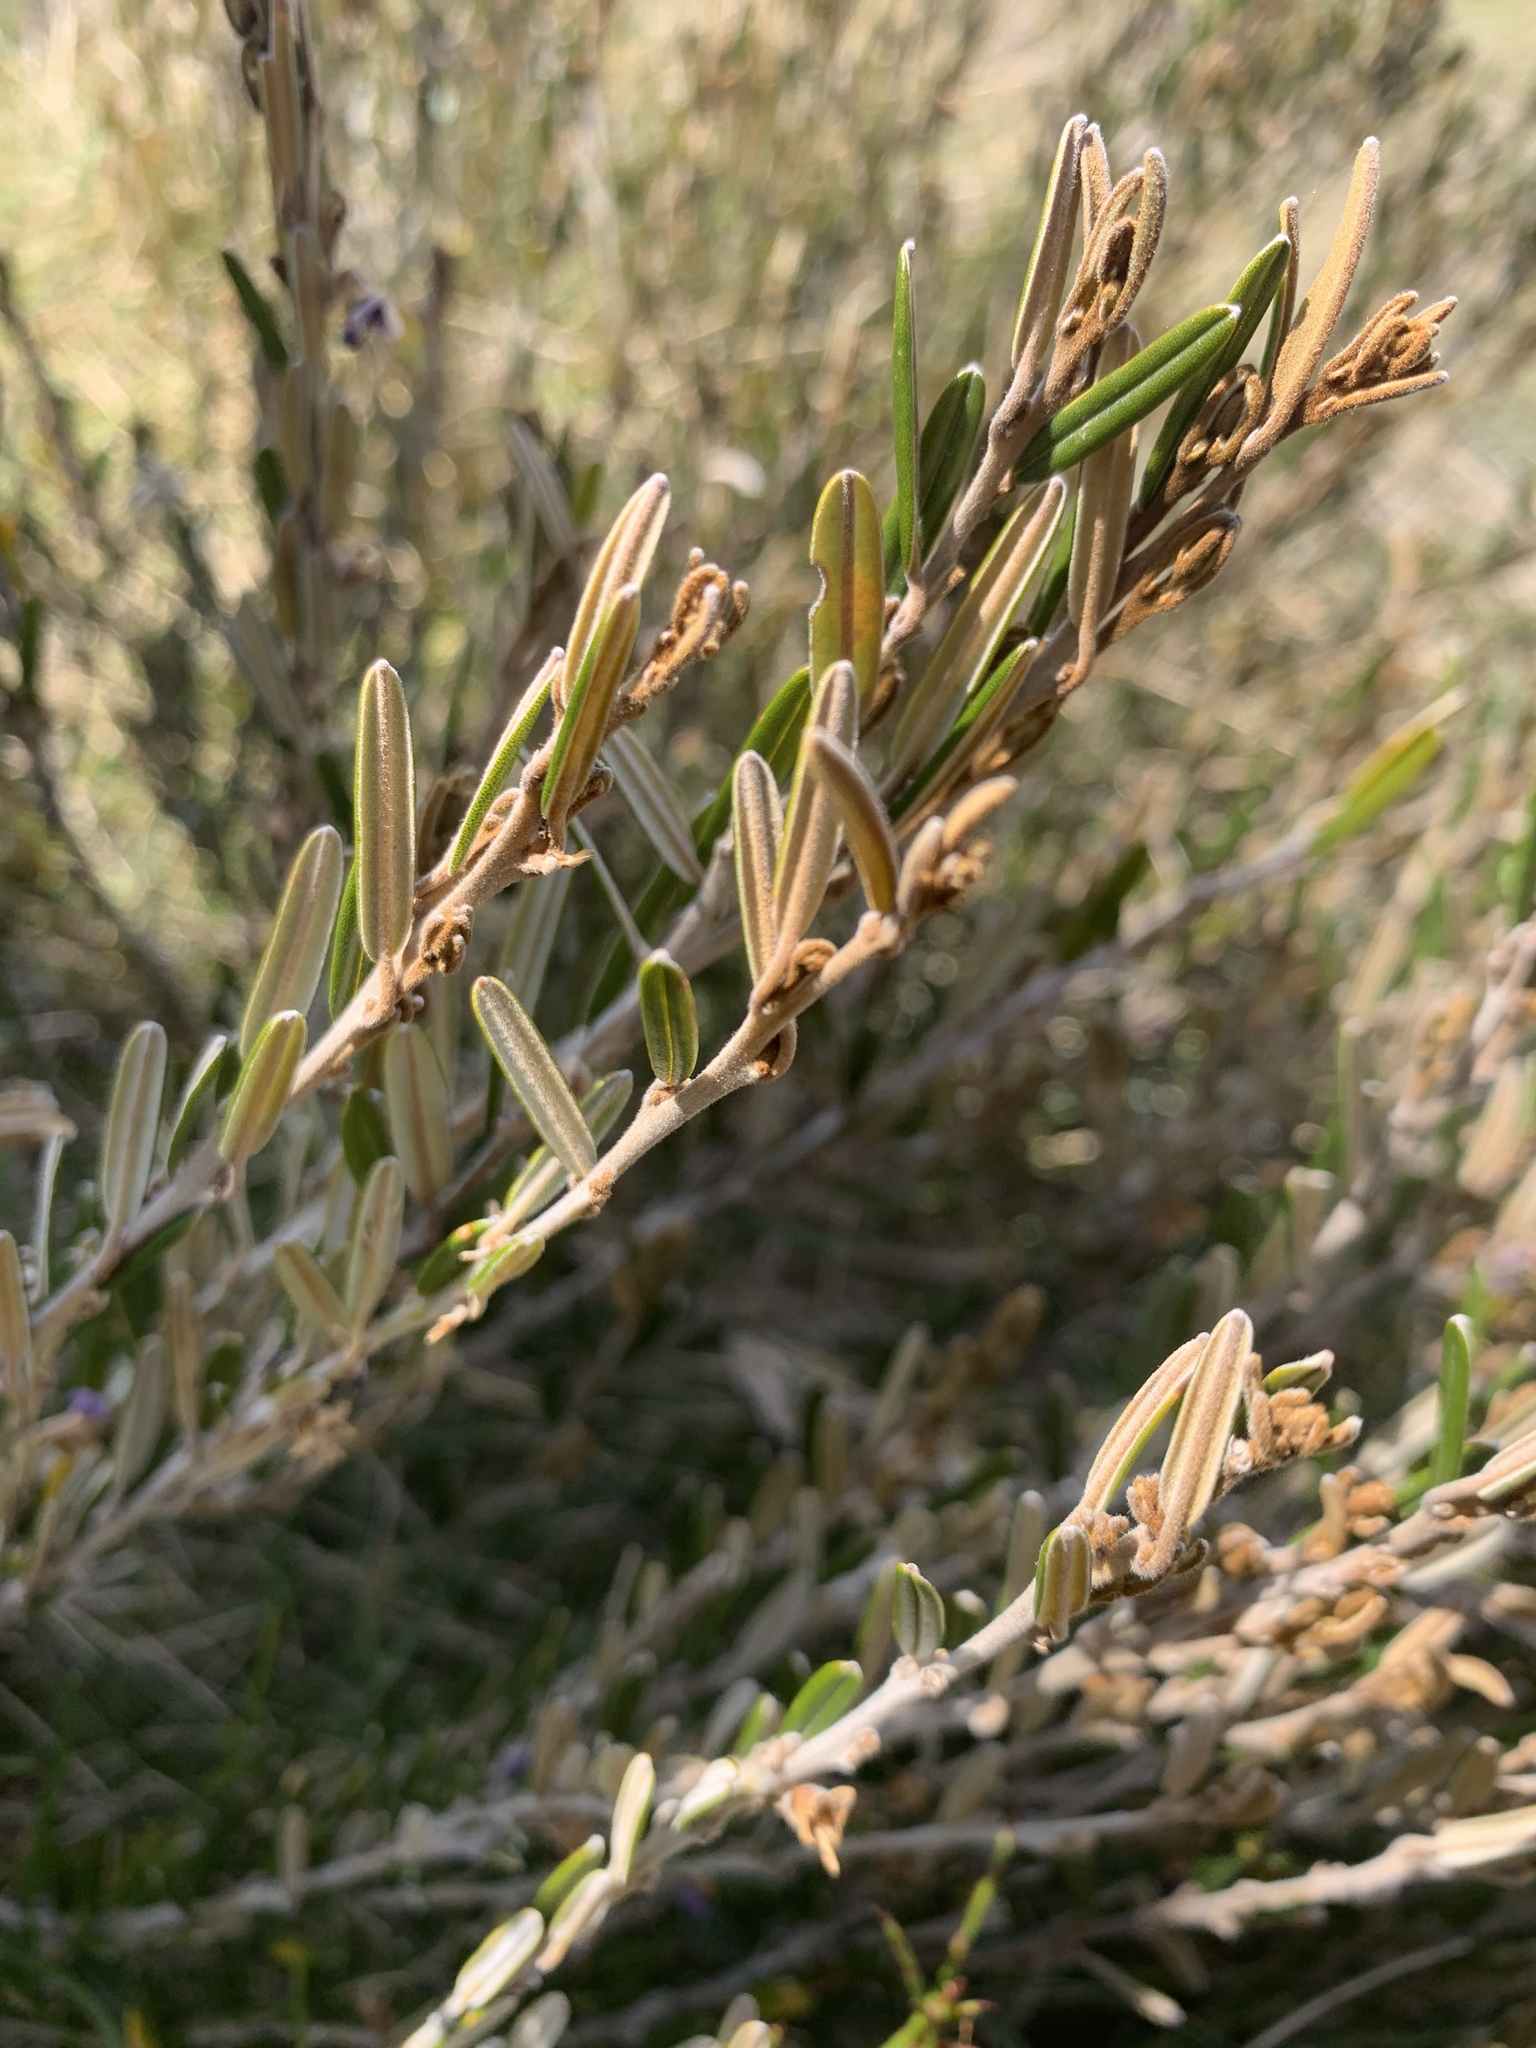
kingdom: Plantae
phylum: Tracheophyta
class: Magnoliopsida
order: Fabales
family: Fabaceae
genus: Hovea
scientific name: Hovea montana
